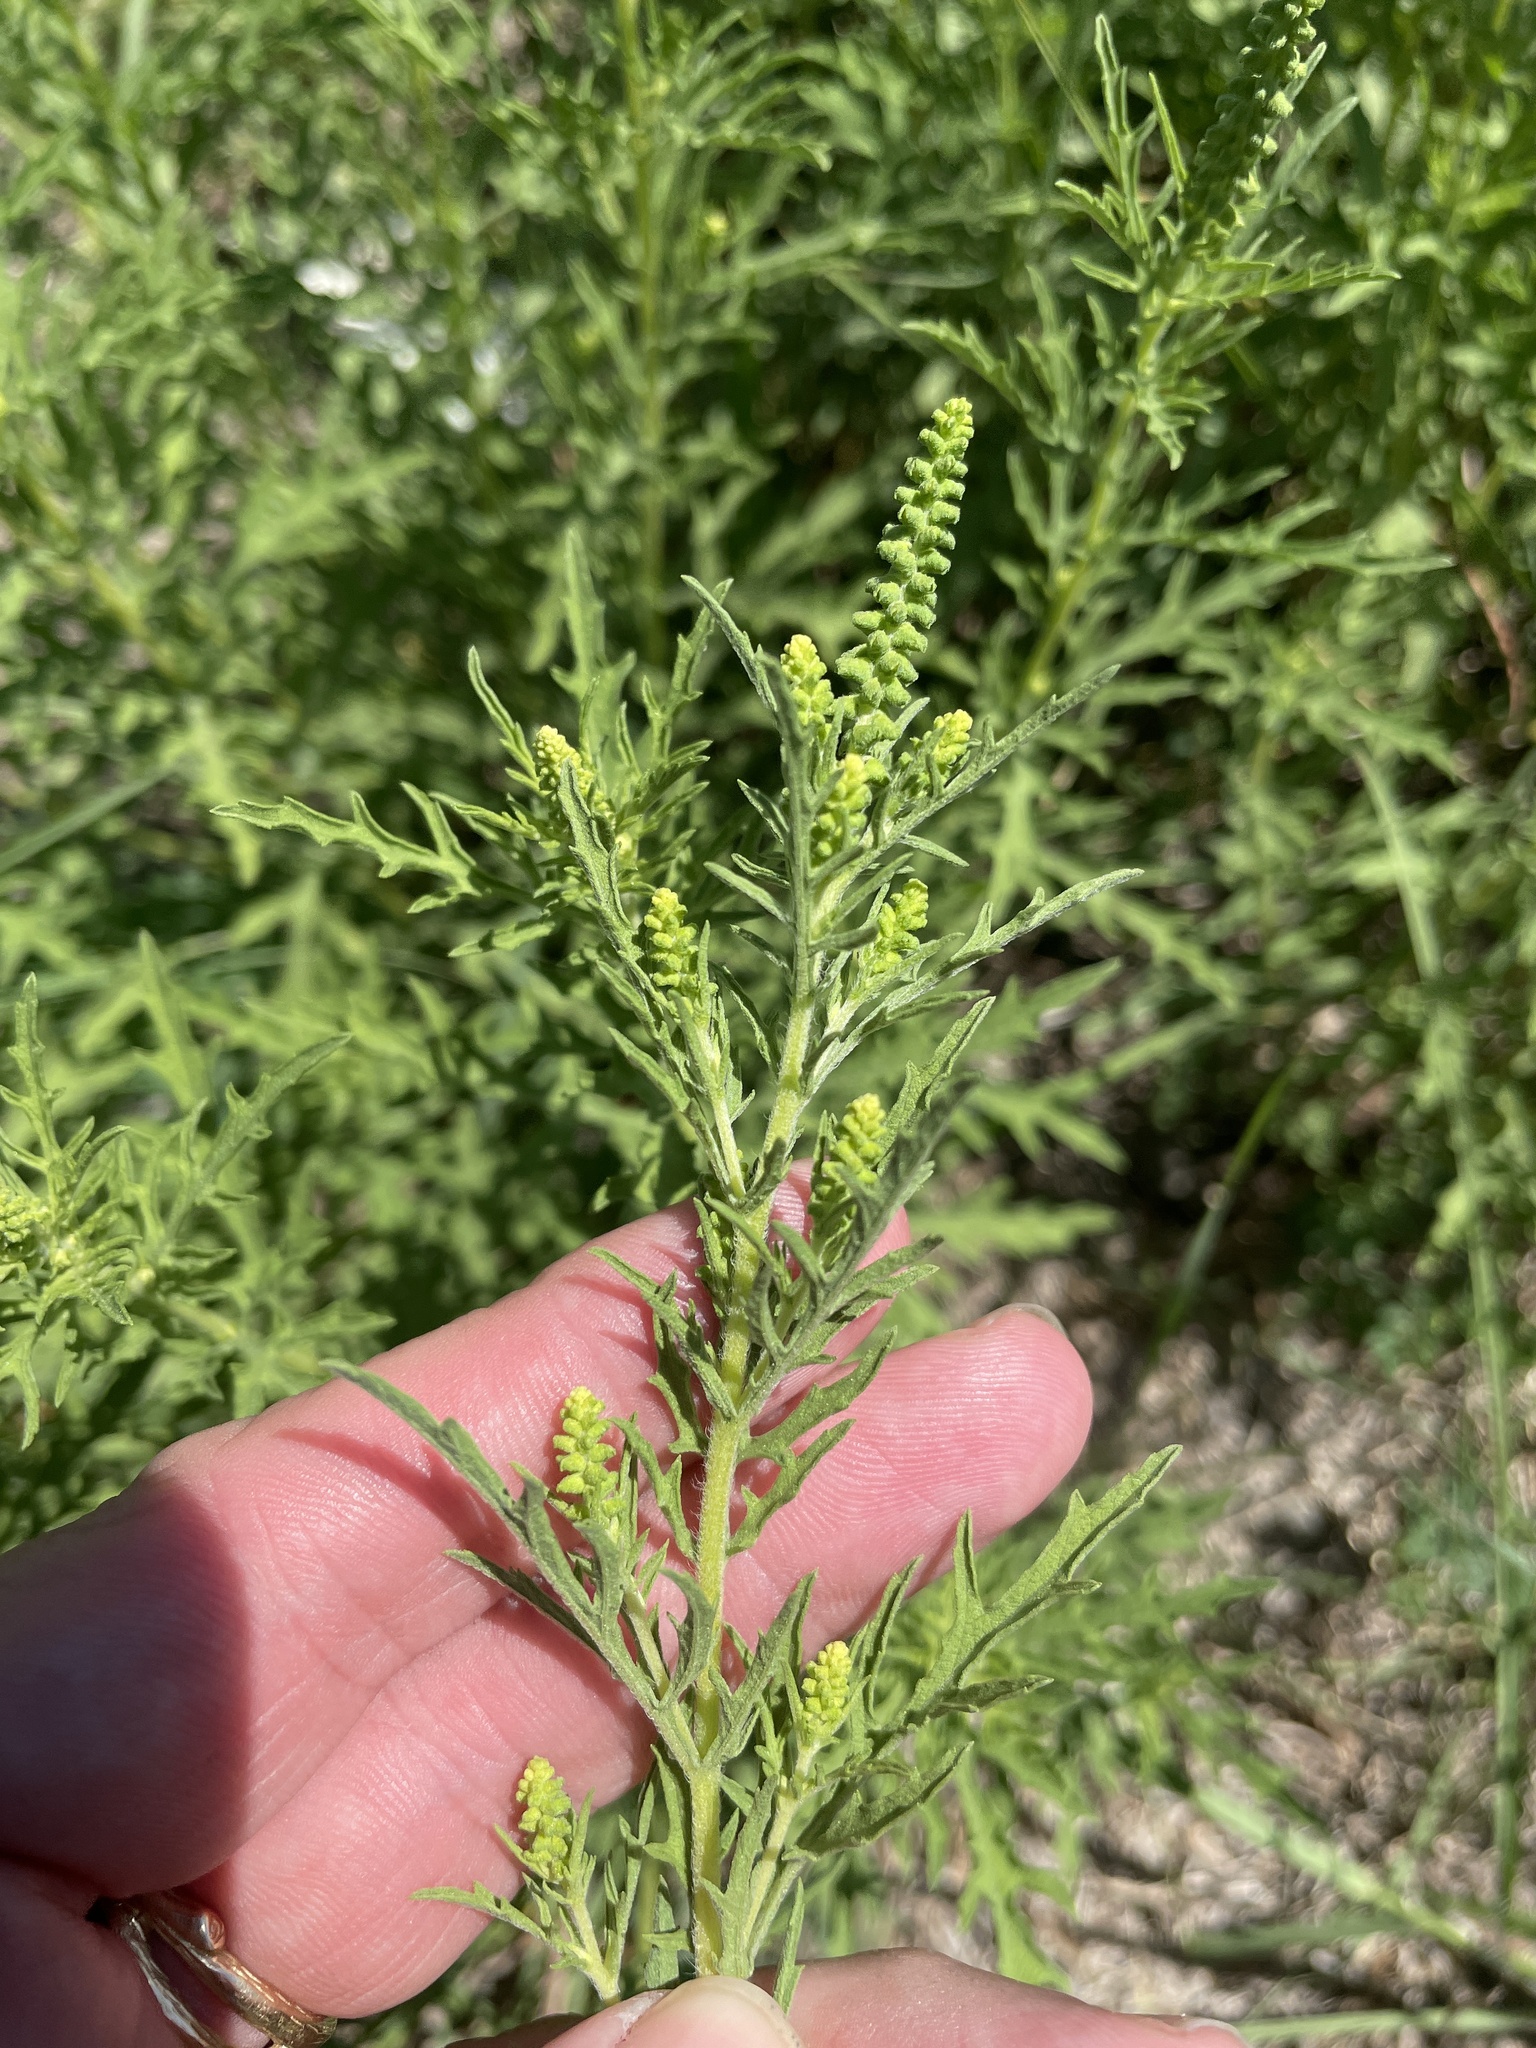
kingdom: Plantae
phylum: Tracheophyta
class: Magnoliopsida
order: Asterales
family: Asteraceae
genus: Ambrosia
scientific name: Ambrosia psilostachya
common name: Perennial ragweed
